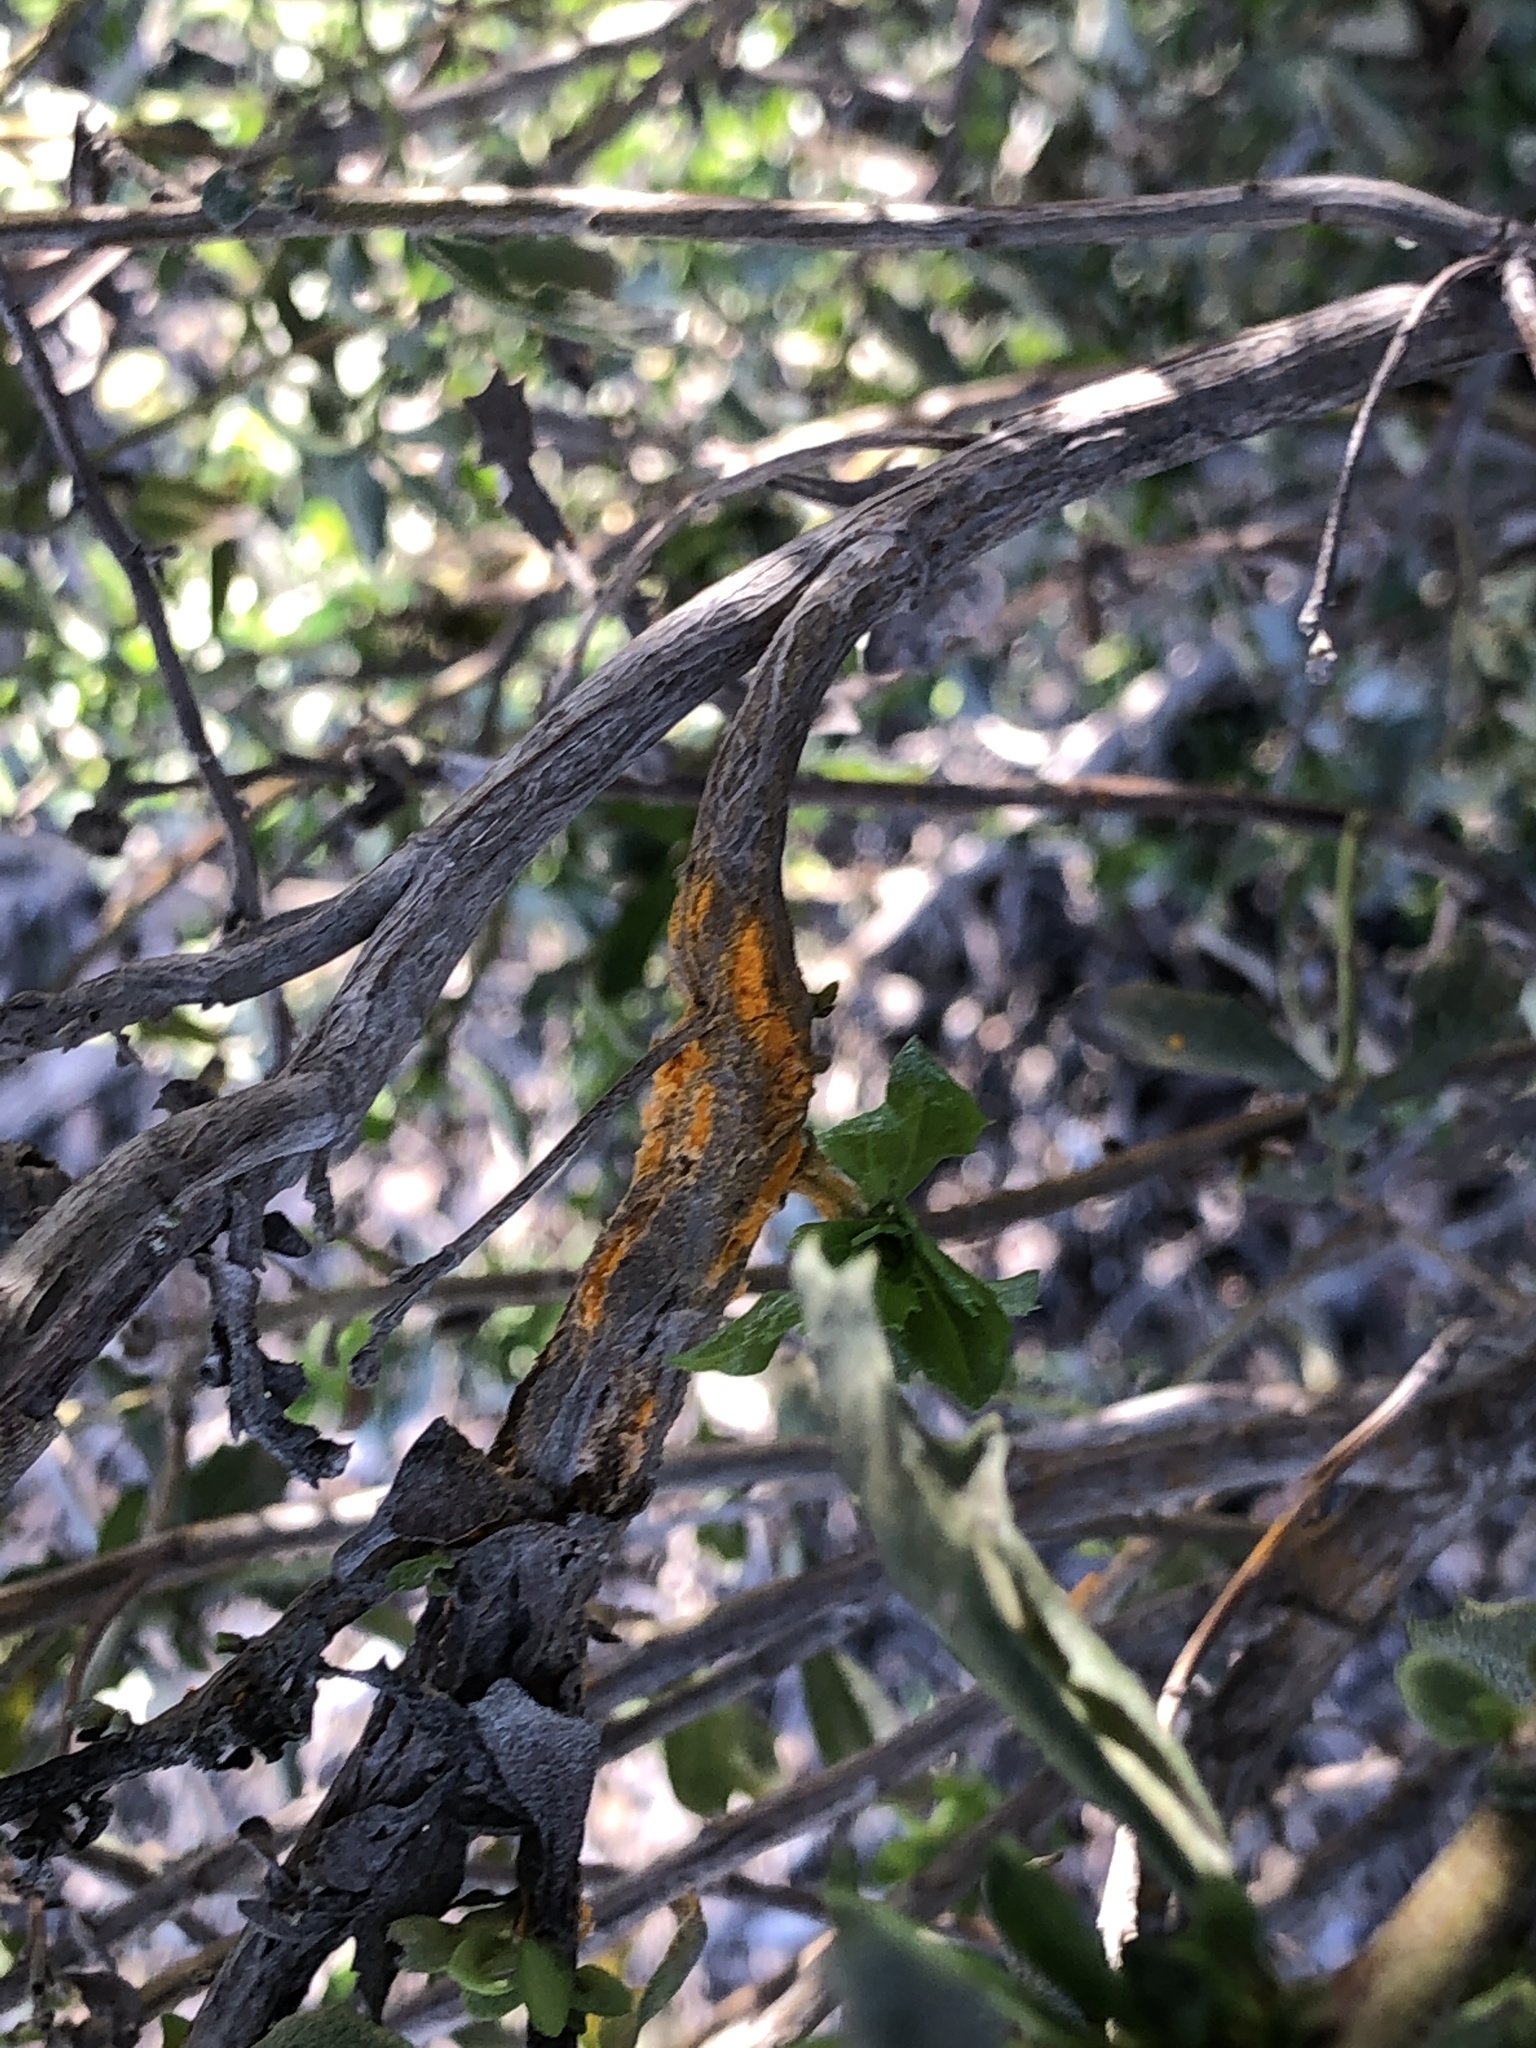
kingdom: Fungi
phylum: Basidiomycota
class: Pucciniomycetes
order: Pucciniales
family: Pucciniaceae
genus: Eriosporangium
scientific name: Eriosporangium evadens
